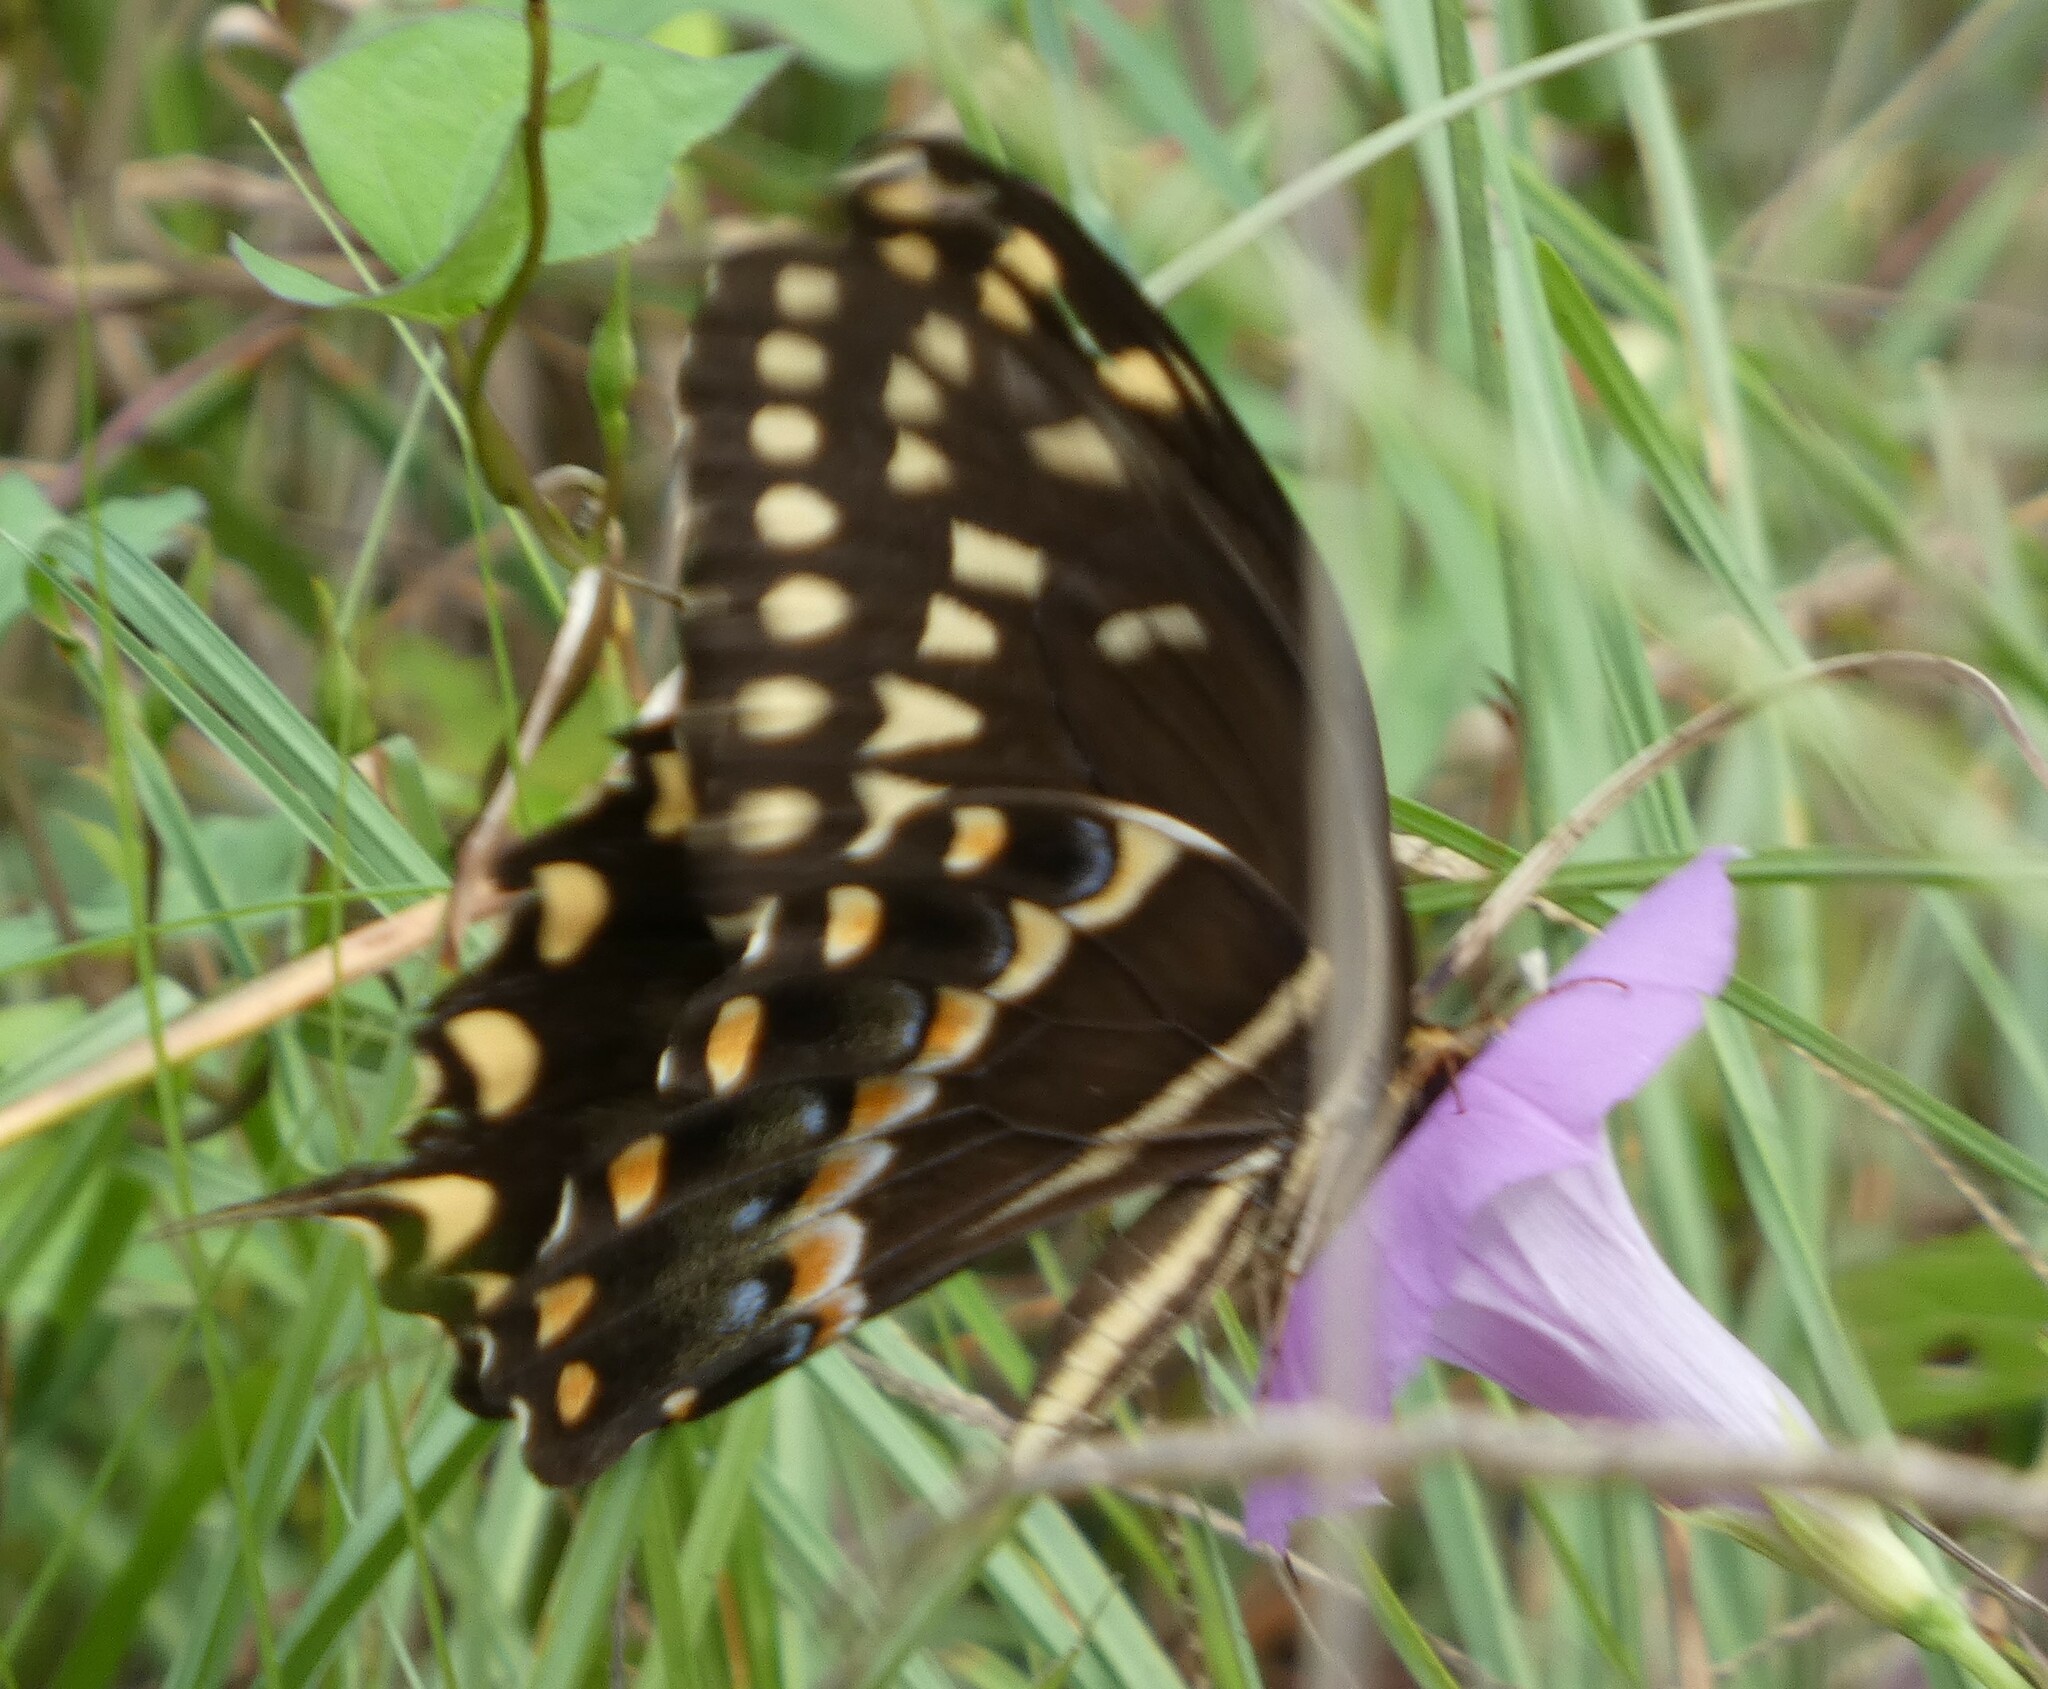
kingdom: Animalia
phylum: Arthropoda
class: Insecta
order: Lepidoptera
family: Papilionidae
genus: Papilio
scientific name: Papilio palamedes
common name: Palamedes swallowtail
